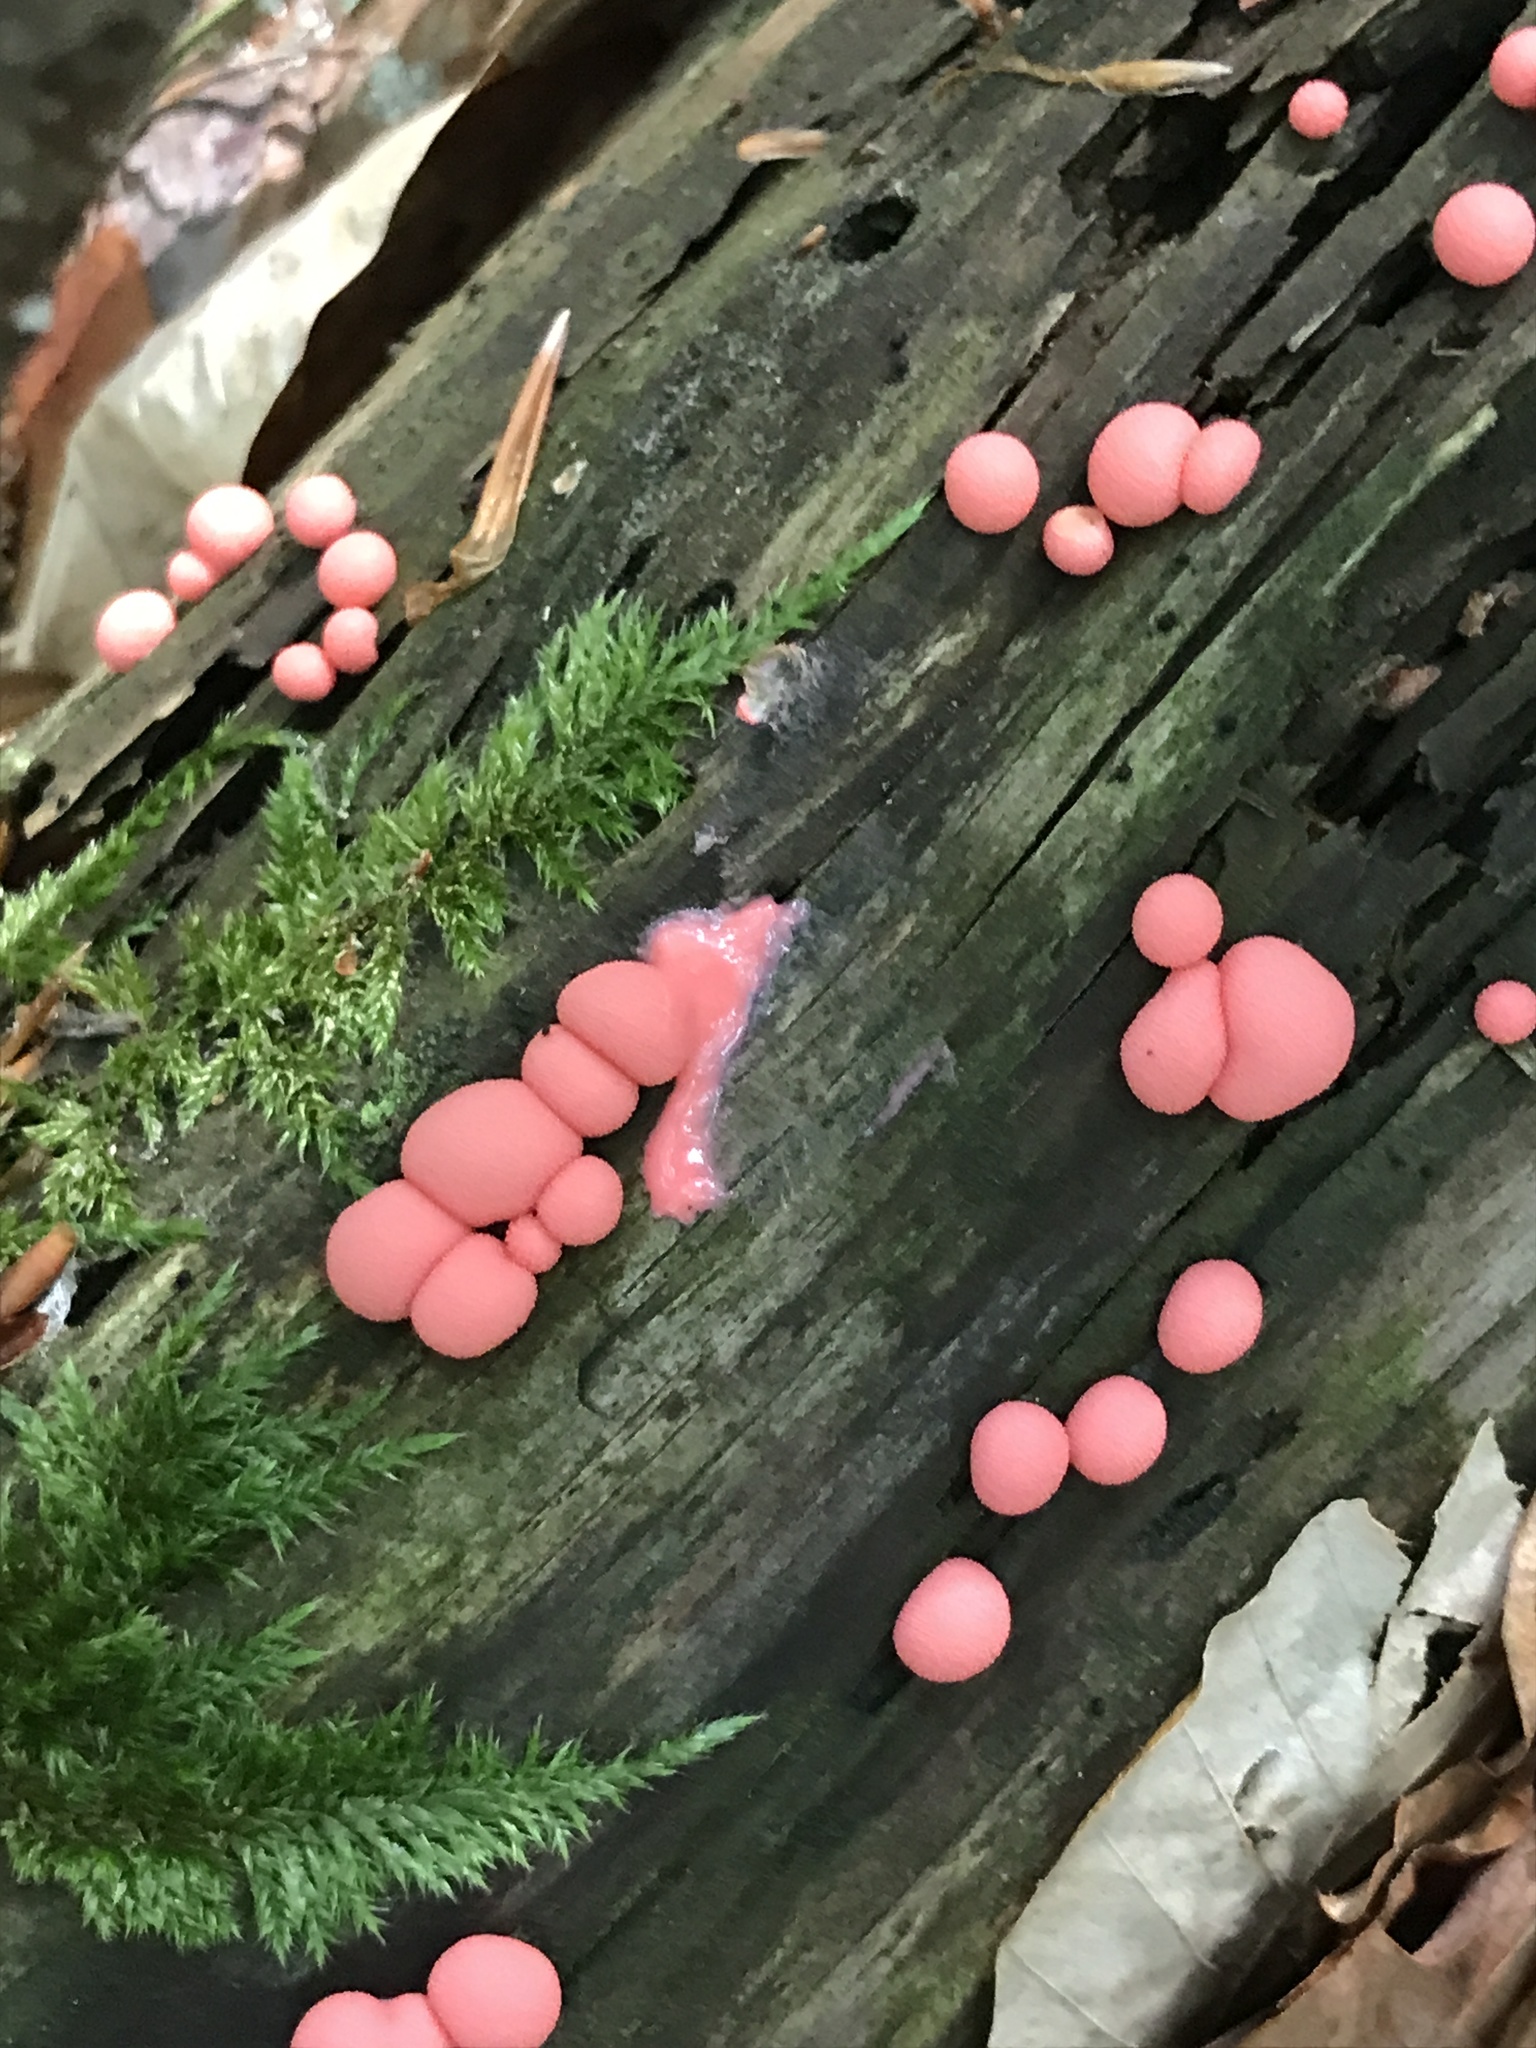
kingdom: Protozoa
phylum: Mycetozoa
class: Myxomycetes
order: Cribrariales
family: Tubiferaceae
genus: Lycogala
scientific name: Lycogala epidendrum
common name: Wolf's milk
